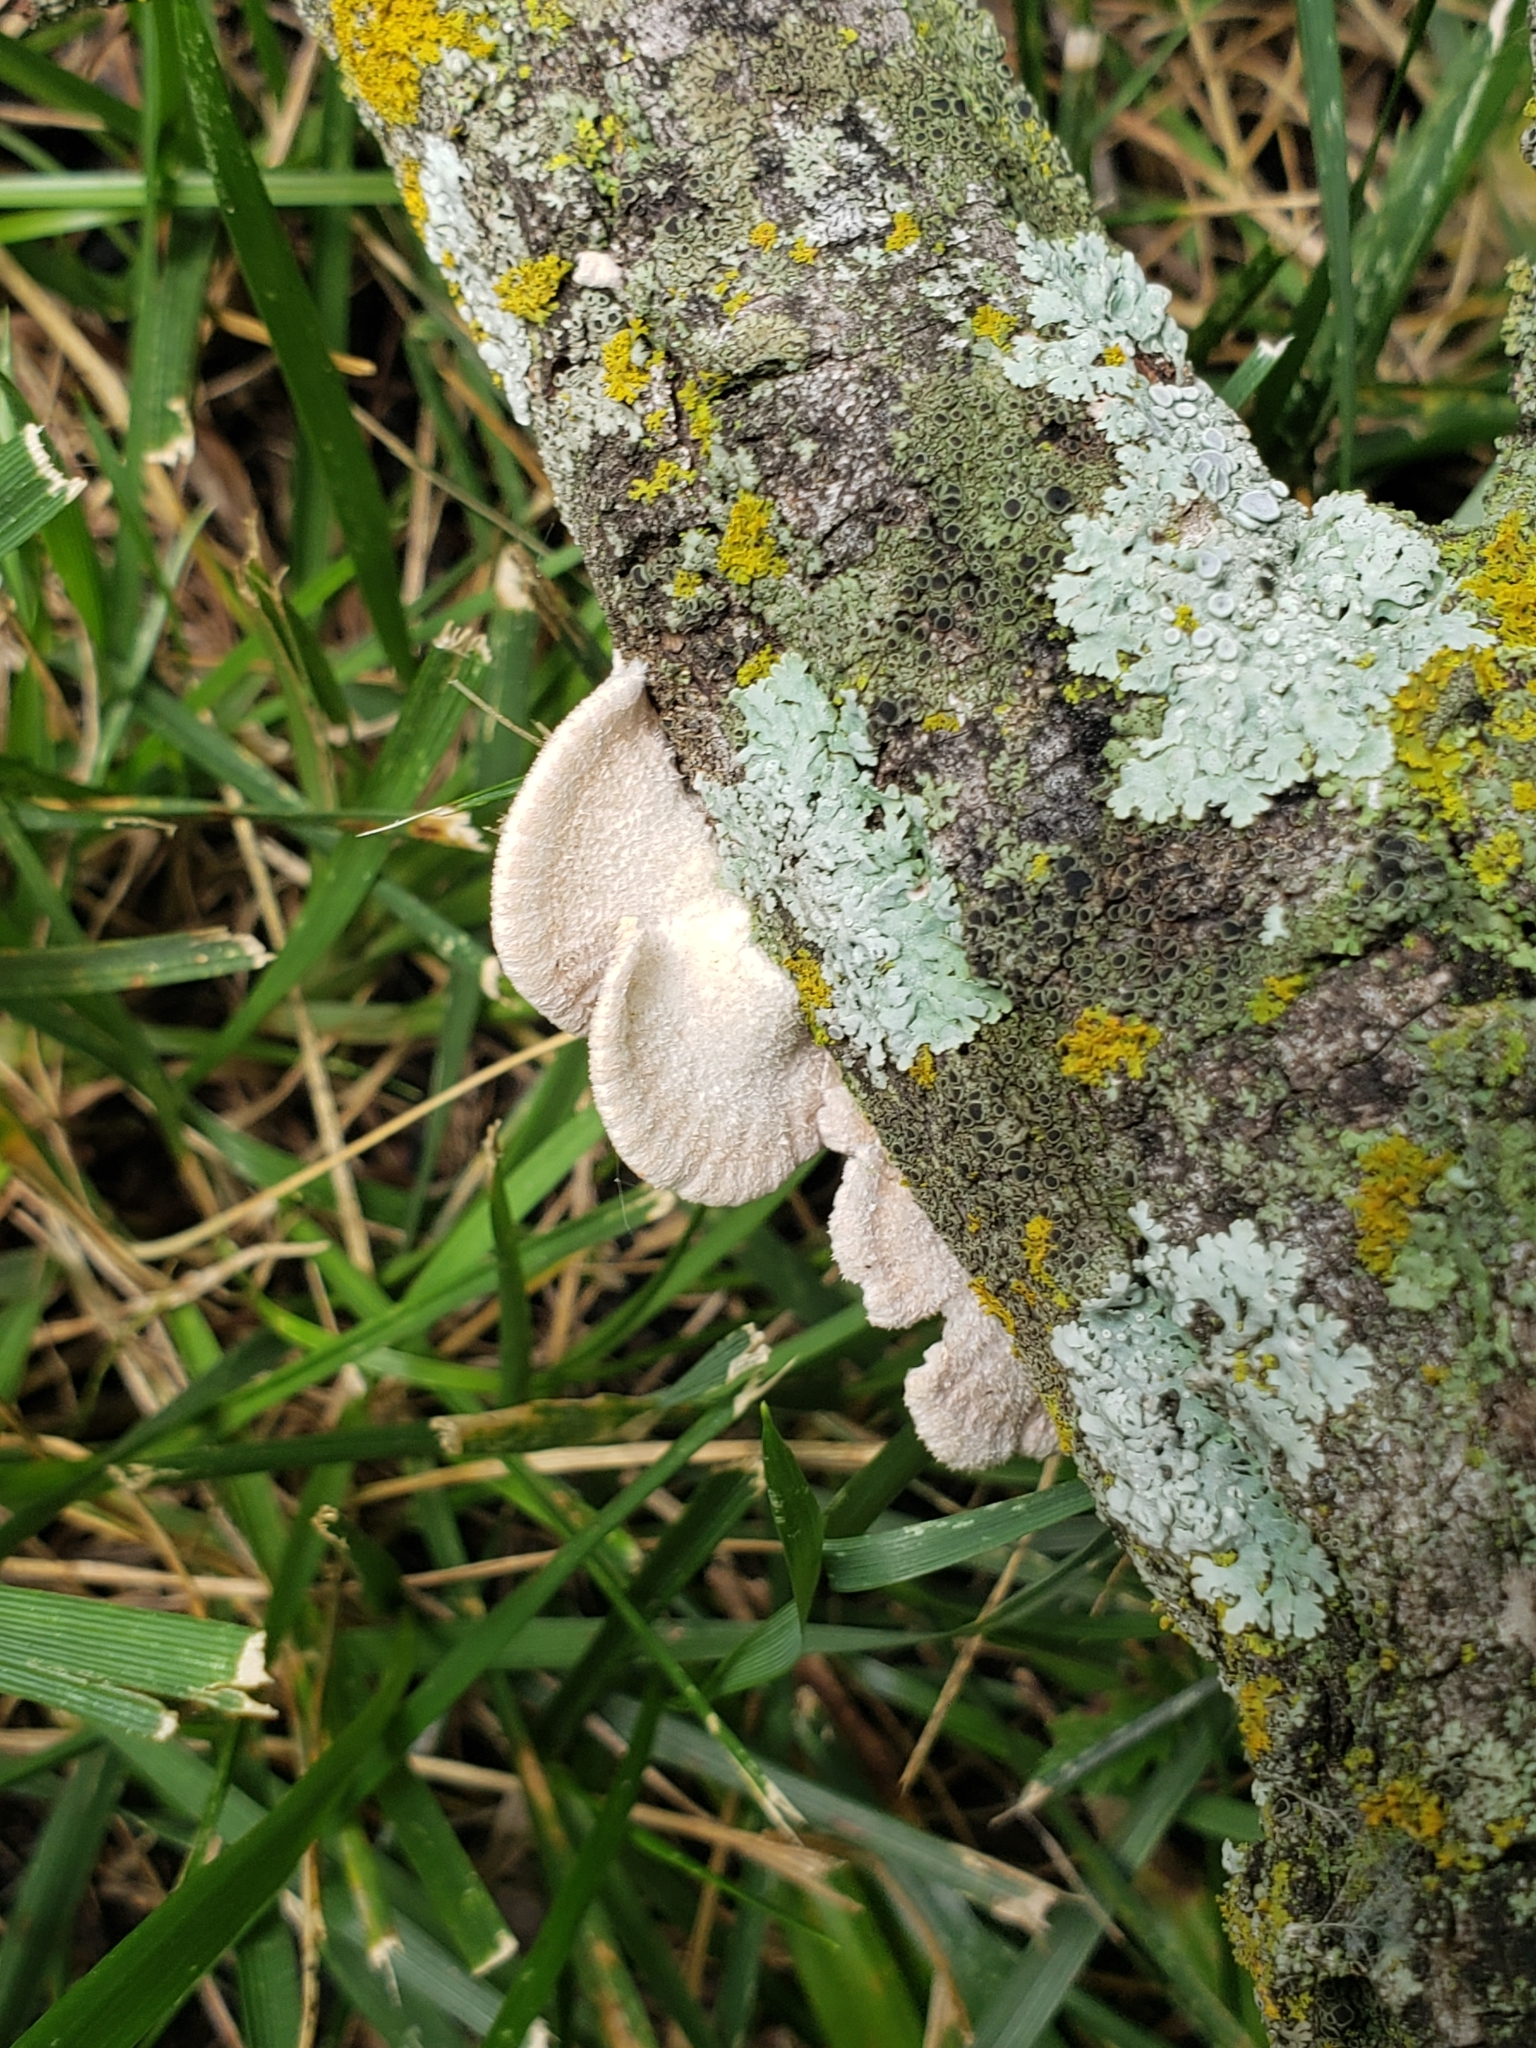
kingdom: Fungi
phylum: Basidiomycota
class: Agaricomycetes
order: Agaricales
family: Schizophyllaceae
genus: Schizophyllum
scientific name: Schizophyllum commune
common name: Common porecrust
